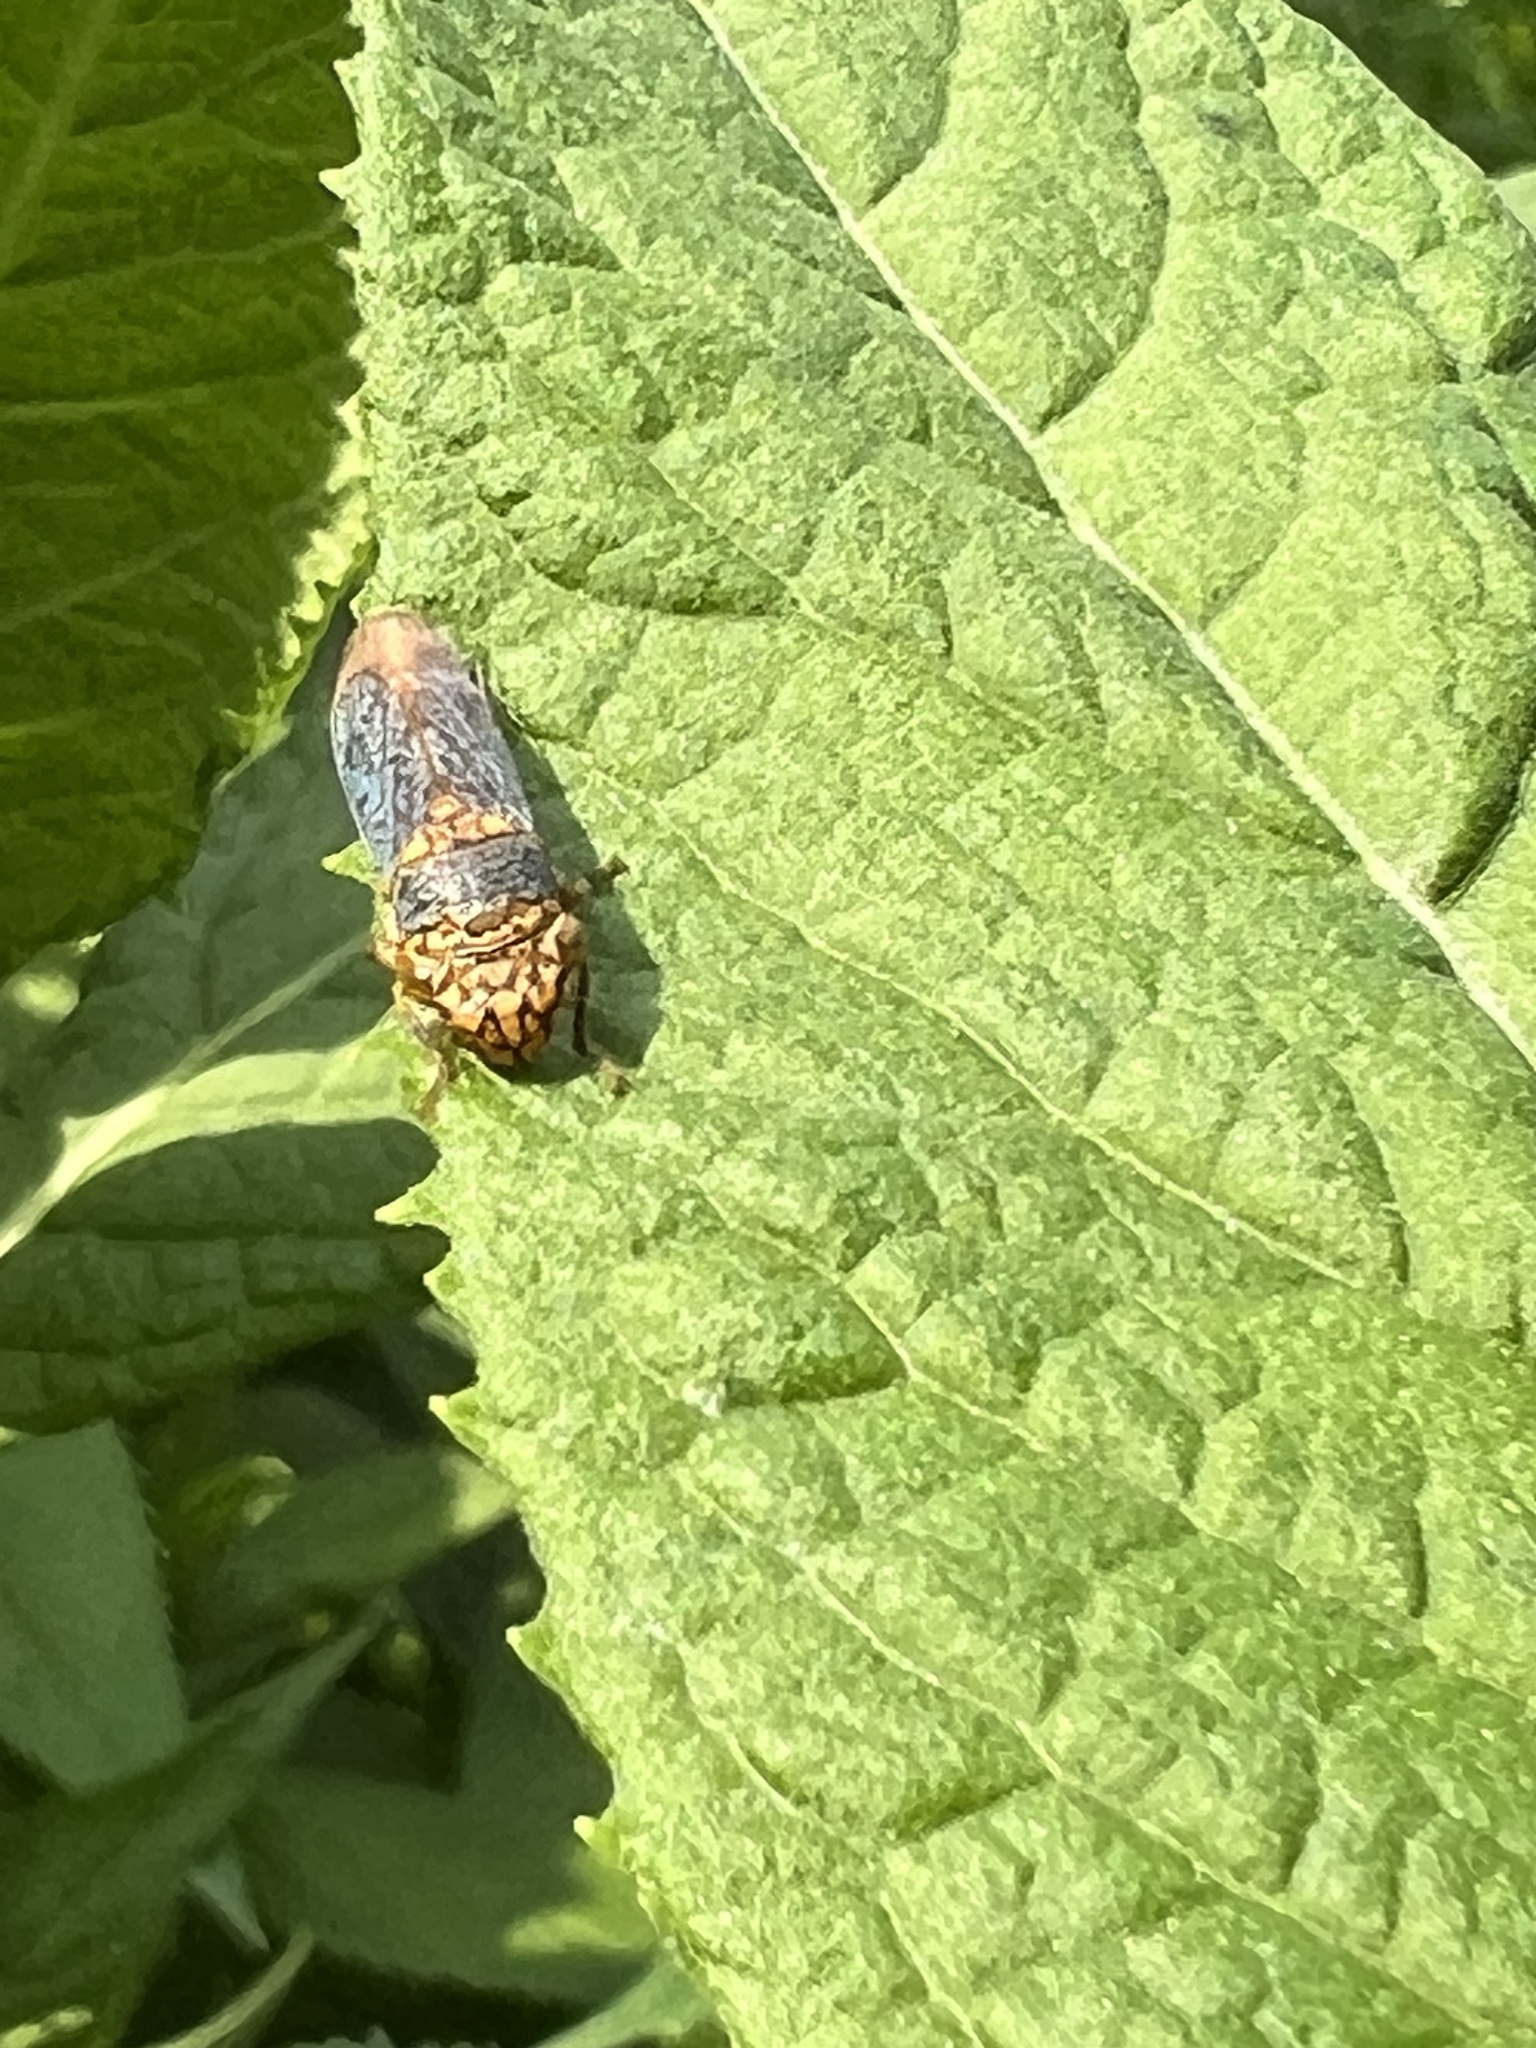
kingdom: Animalia
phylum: Arthropoda
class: Insecta
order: Hemiptera
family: Cicadellidae
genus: Oncometopia
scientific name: Oncometopia orbona
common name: Broad-headed sharpshooter
